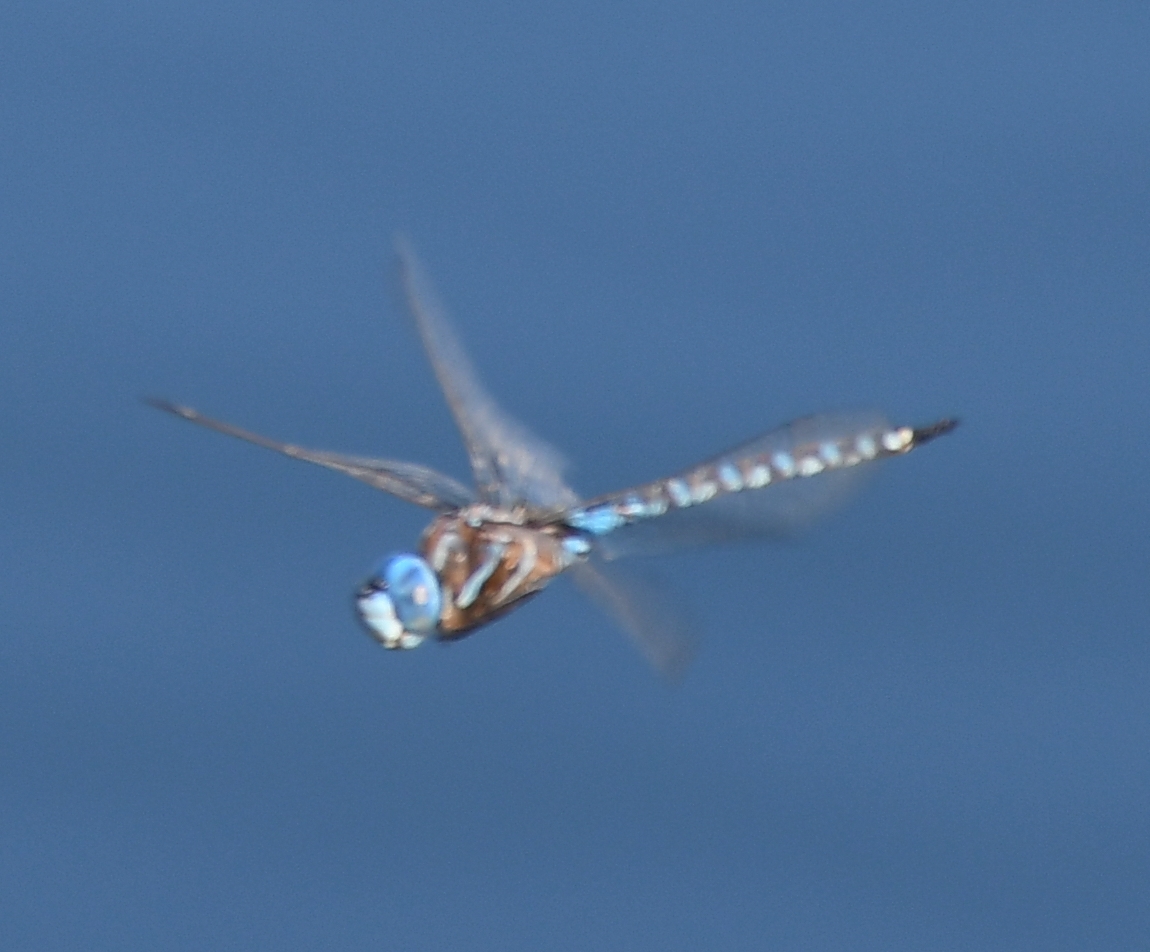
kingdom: Animalia
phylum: Arthropoda
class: Insecta
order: Odonata
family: Aeshnidae
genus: Rhionaeschna
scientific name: Rhionaeschna multicolor
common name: Blue-eyed darner
